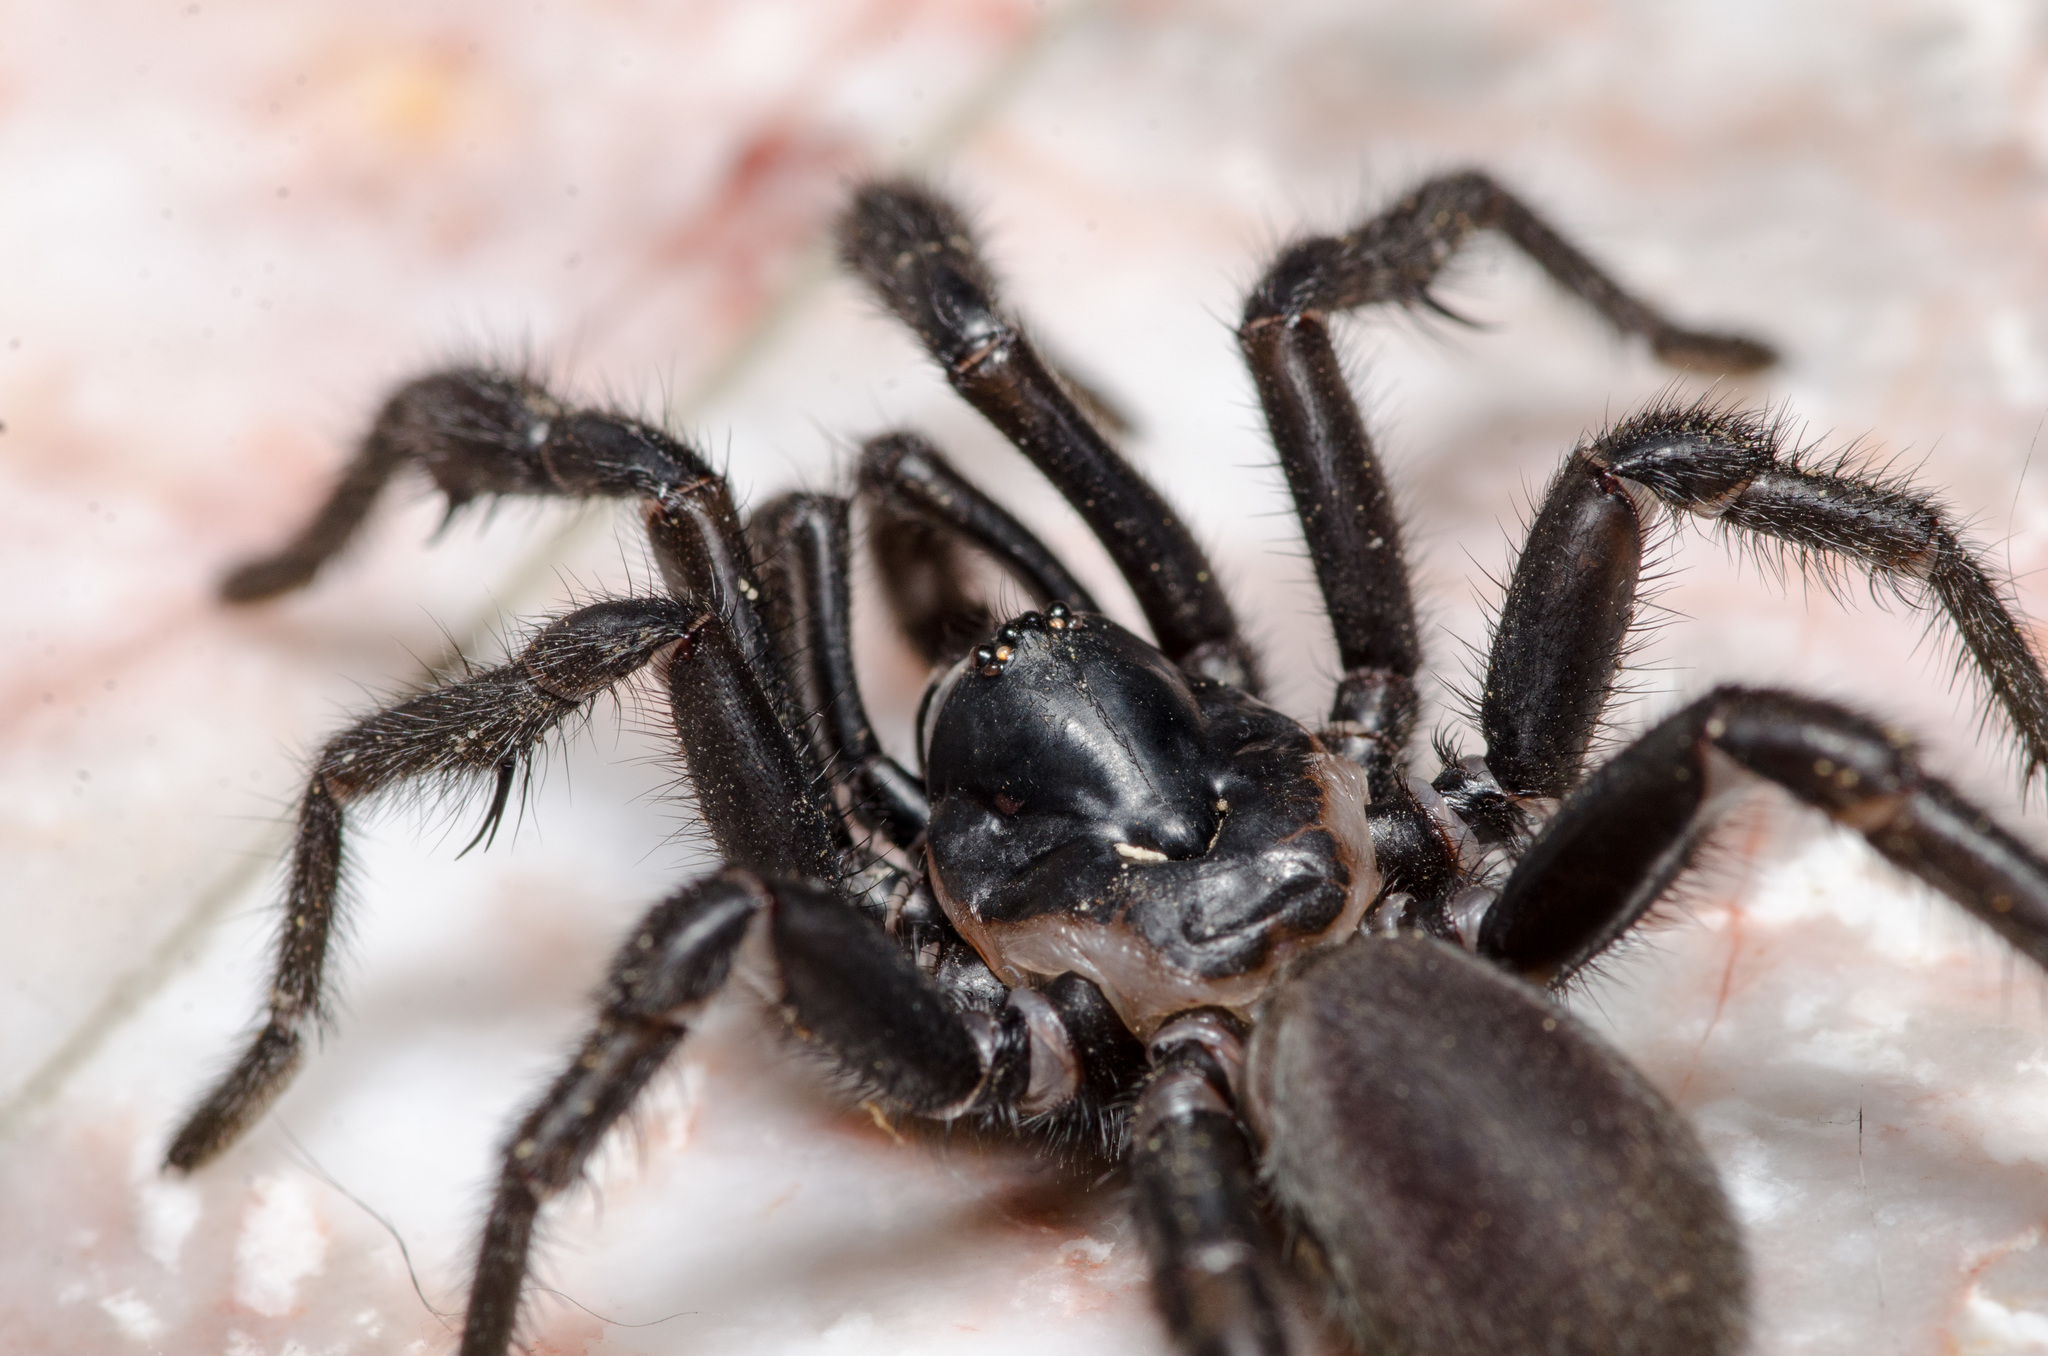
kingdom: Animalia
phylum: Arthropoda
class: Arachnida
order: Araneae
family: Euctenizidae
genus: Eucteniza
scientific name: Eucteniza relata
